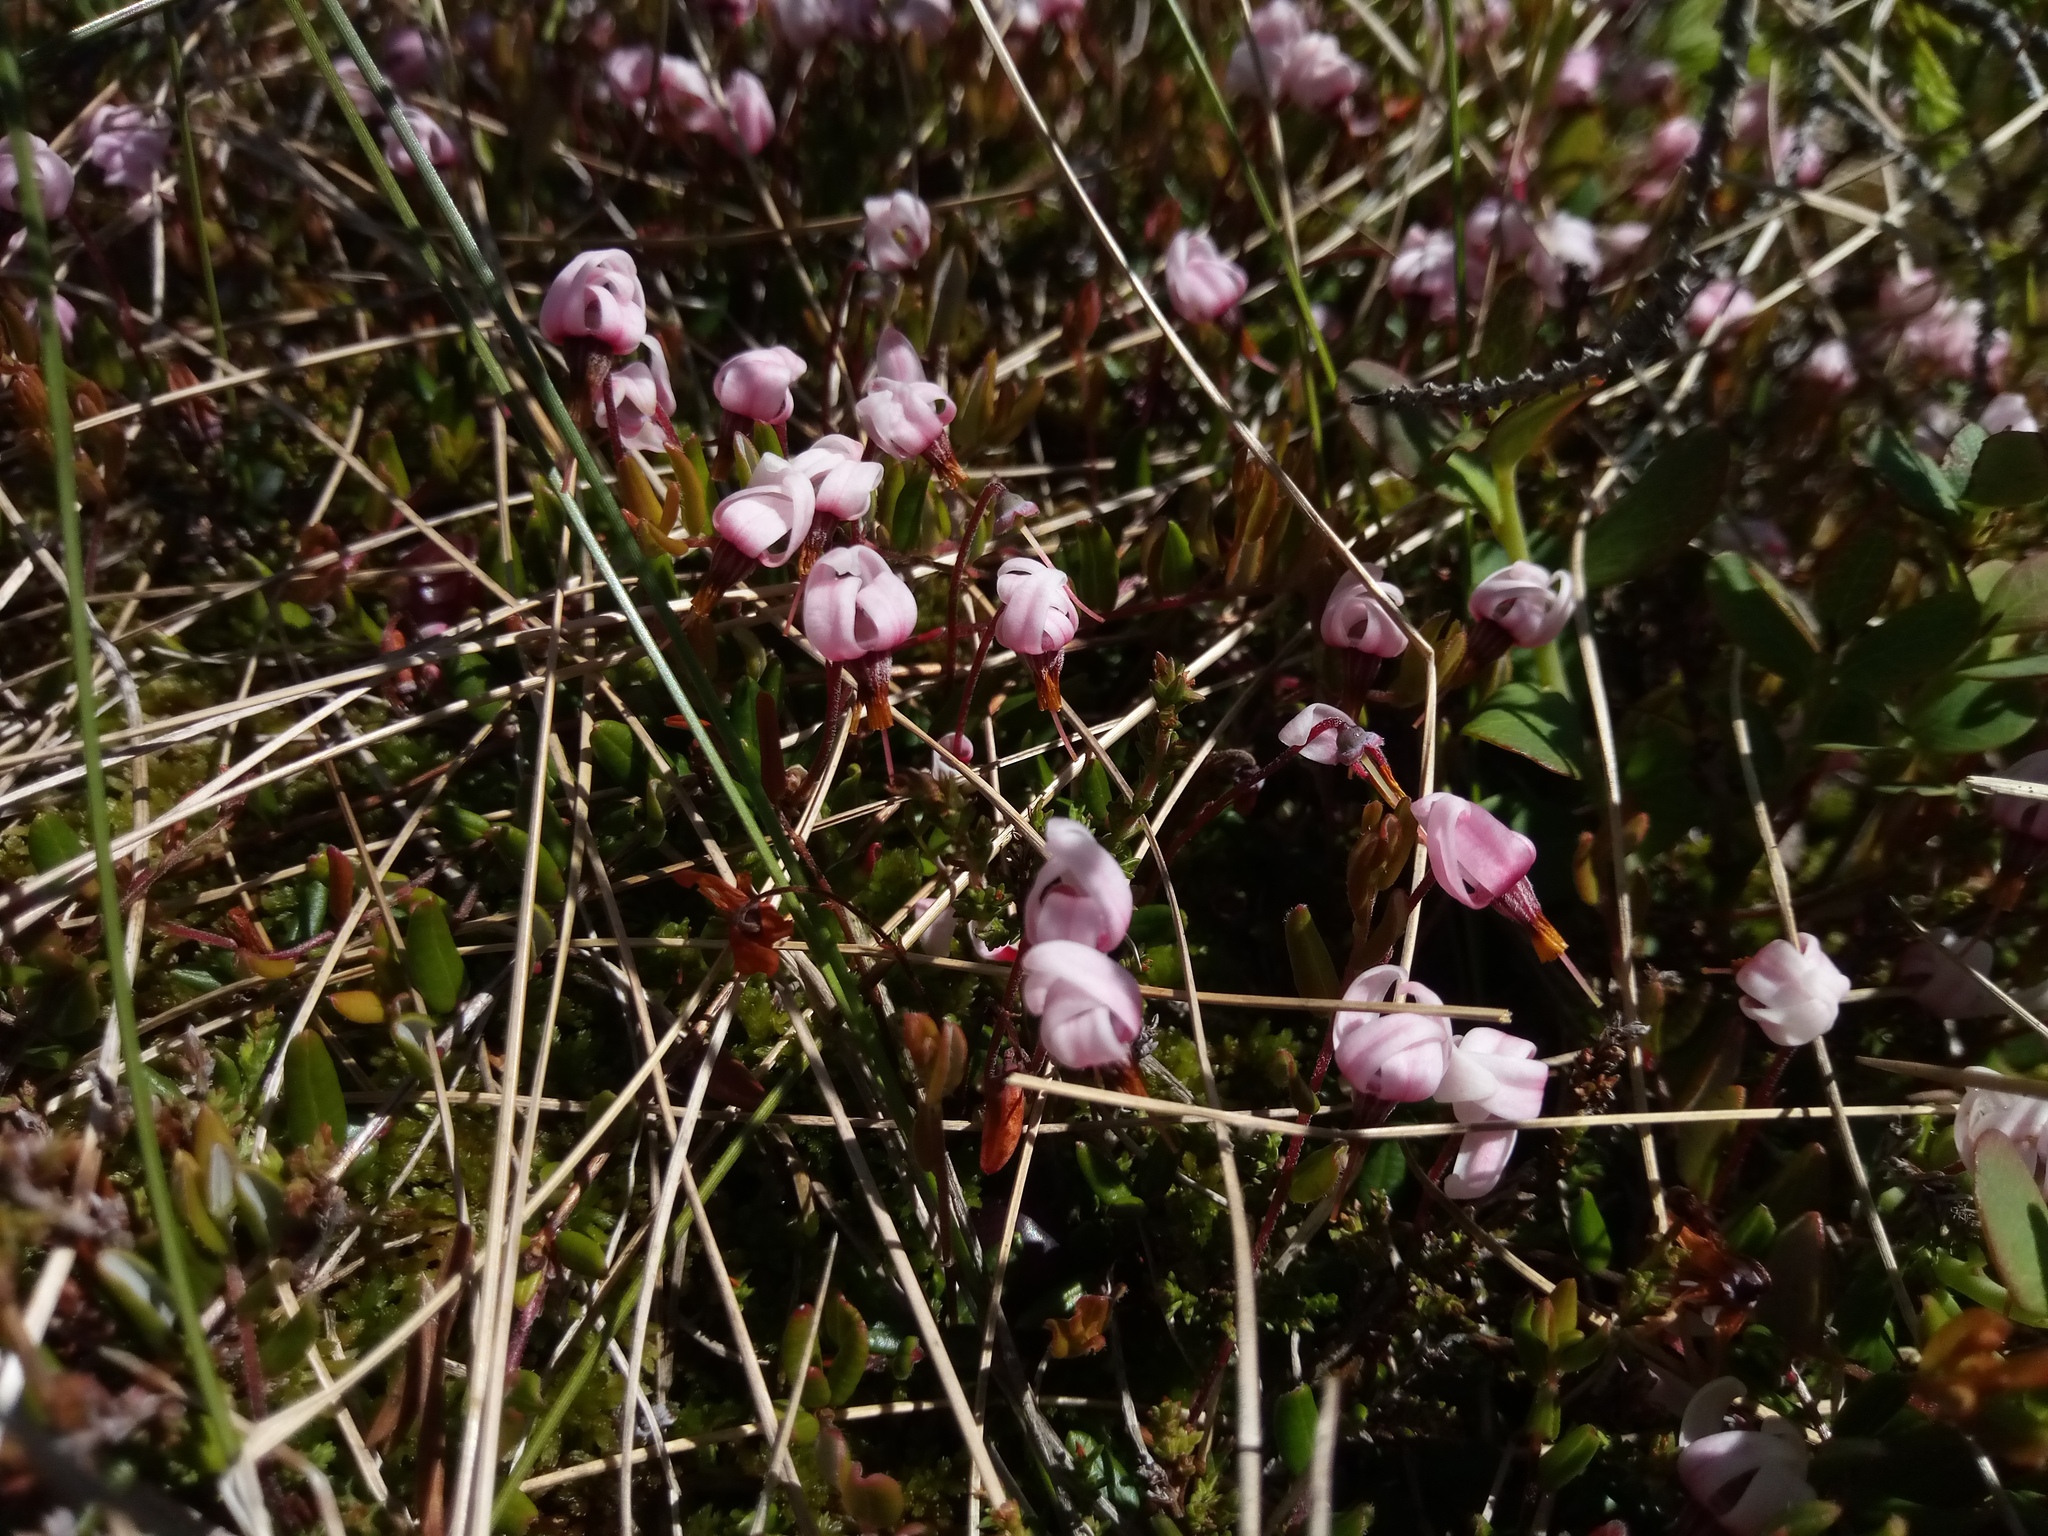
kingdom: Plantae
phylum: Tracheophyta
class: Magnoliopsida
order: Ericales
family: Ericaceae
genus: Vaccinium
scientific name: Vaccinium oxycoccos
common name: Cranberry
